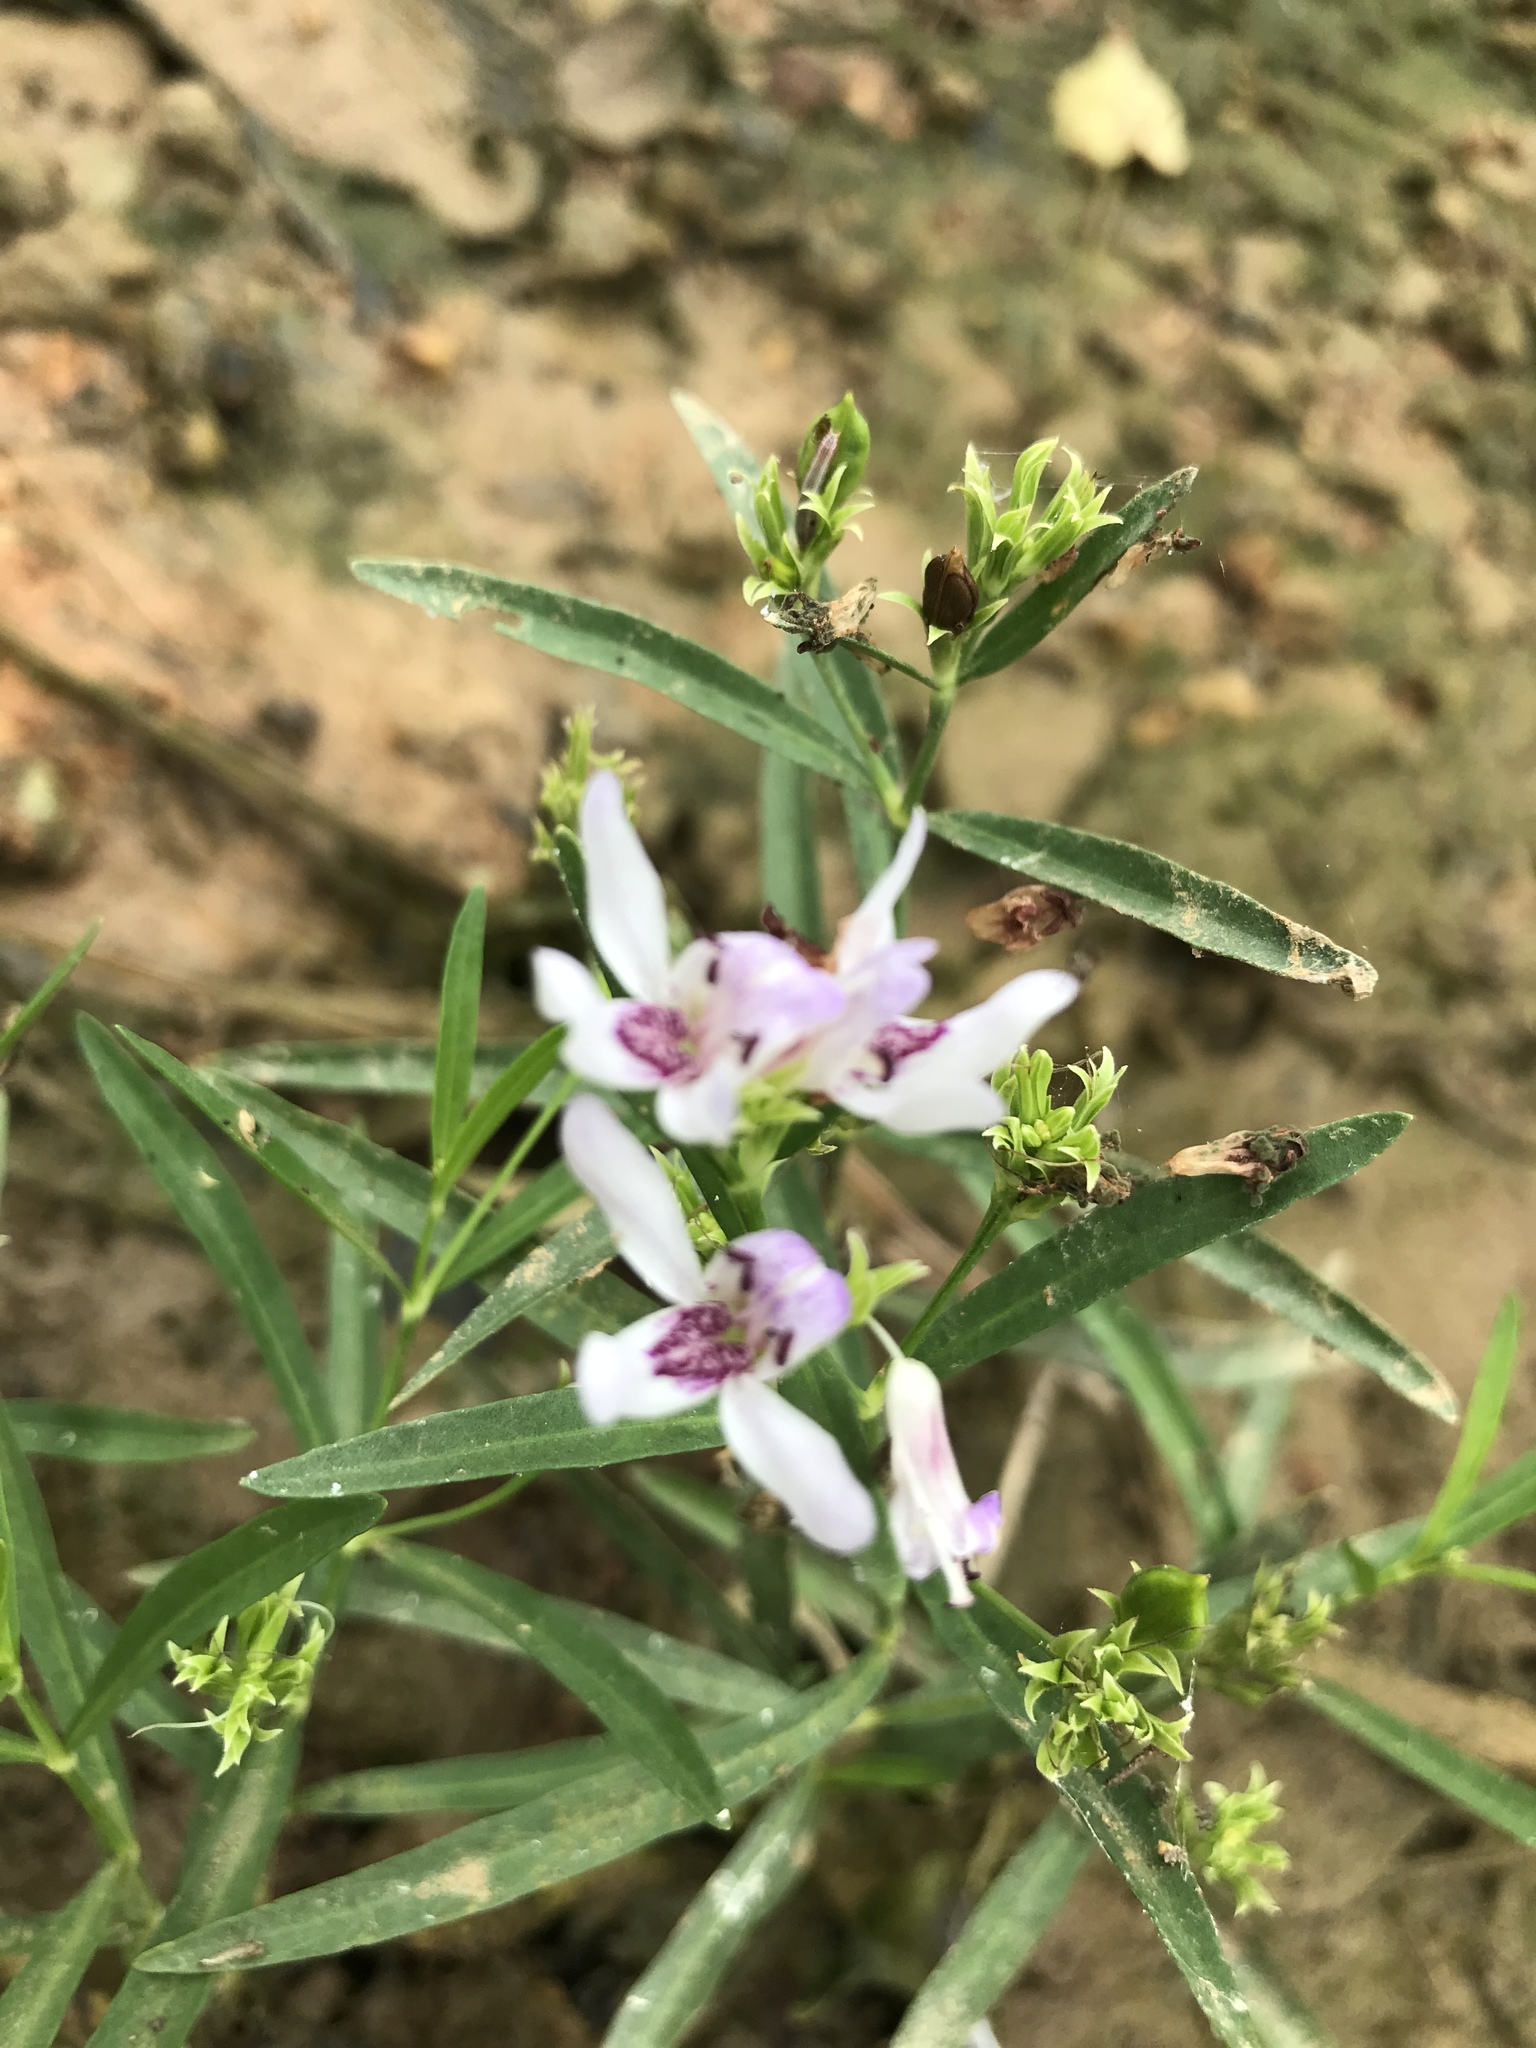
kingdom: Plantae
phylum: Tracheophyta
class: Magnoliopsida
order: Lamiales
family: Acanthaceae
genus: Dianthera
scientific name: Dianthera americana
